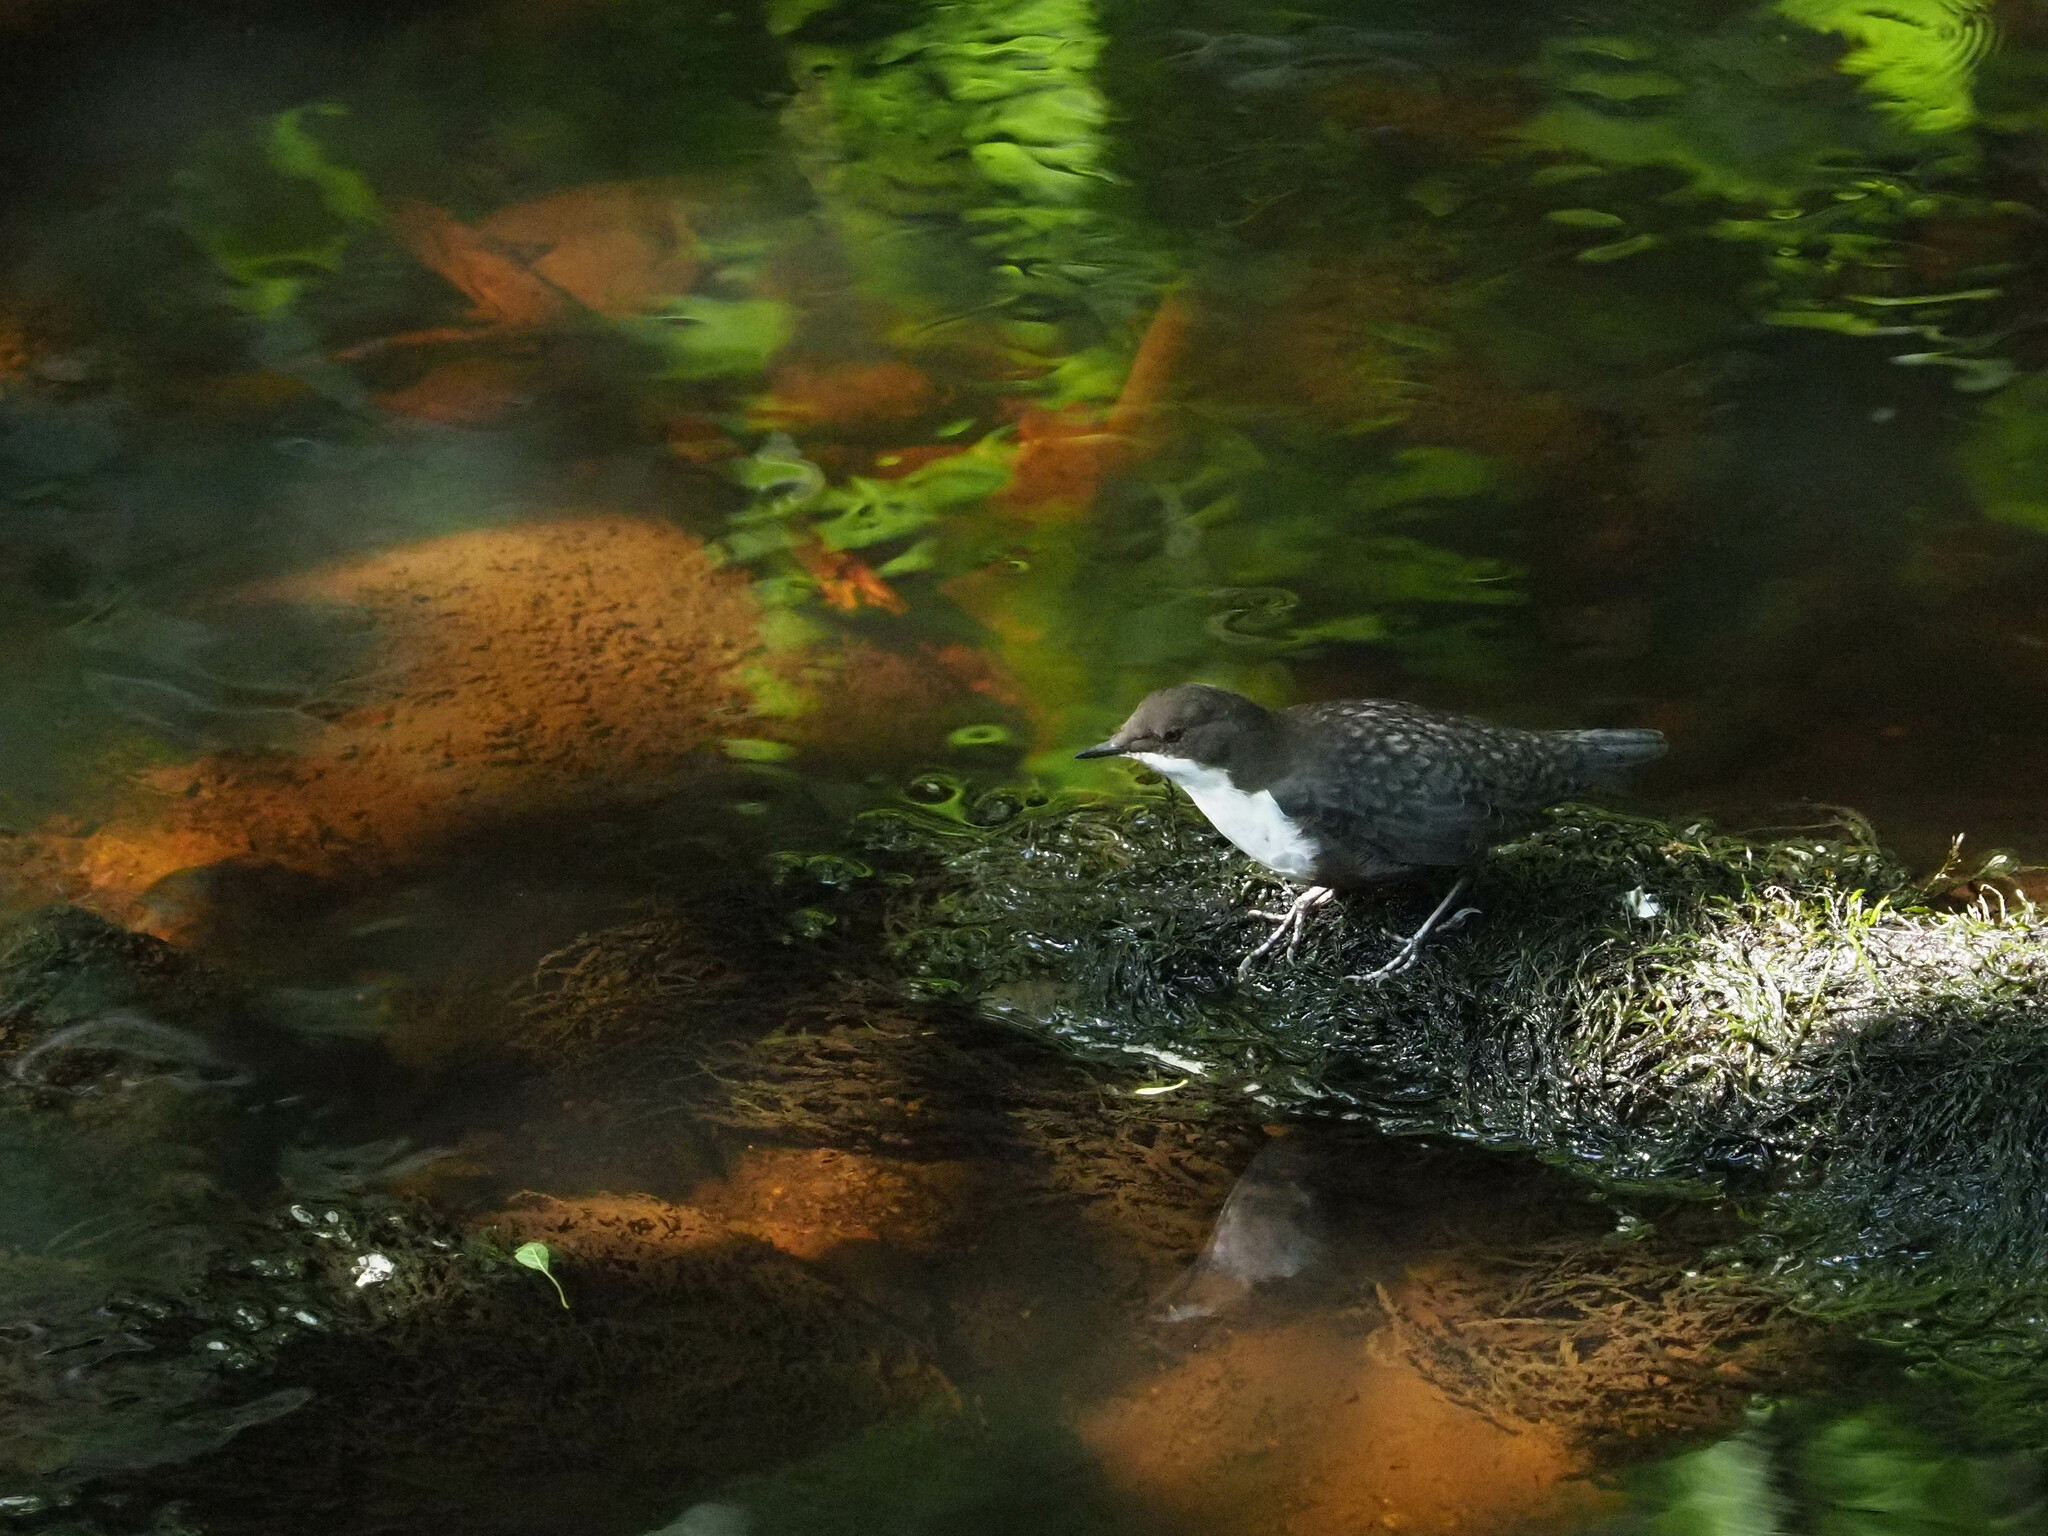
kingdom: Animalia
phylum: Chordata
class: Aves
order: Passeriformes
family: Cinclidae
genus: Cinclus
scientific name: Cinclus cinclus
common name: White-throated dipper
